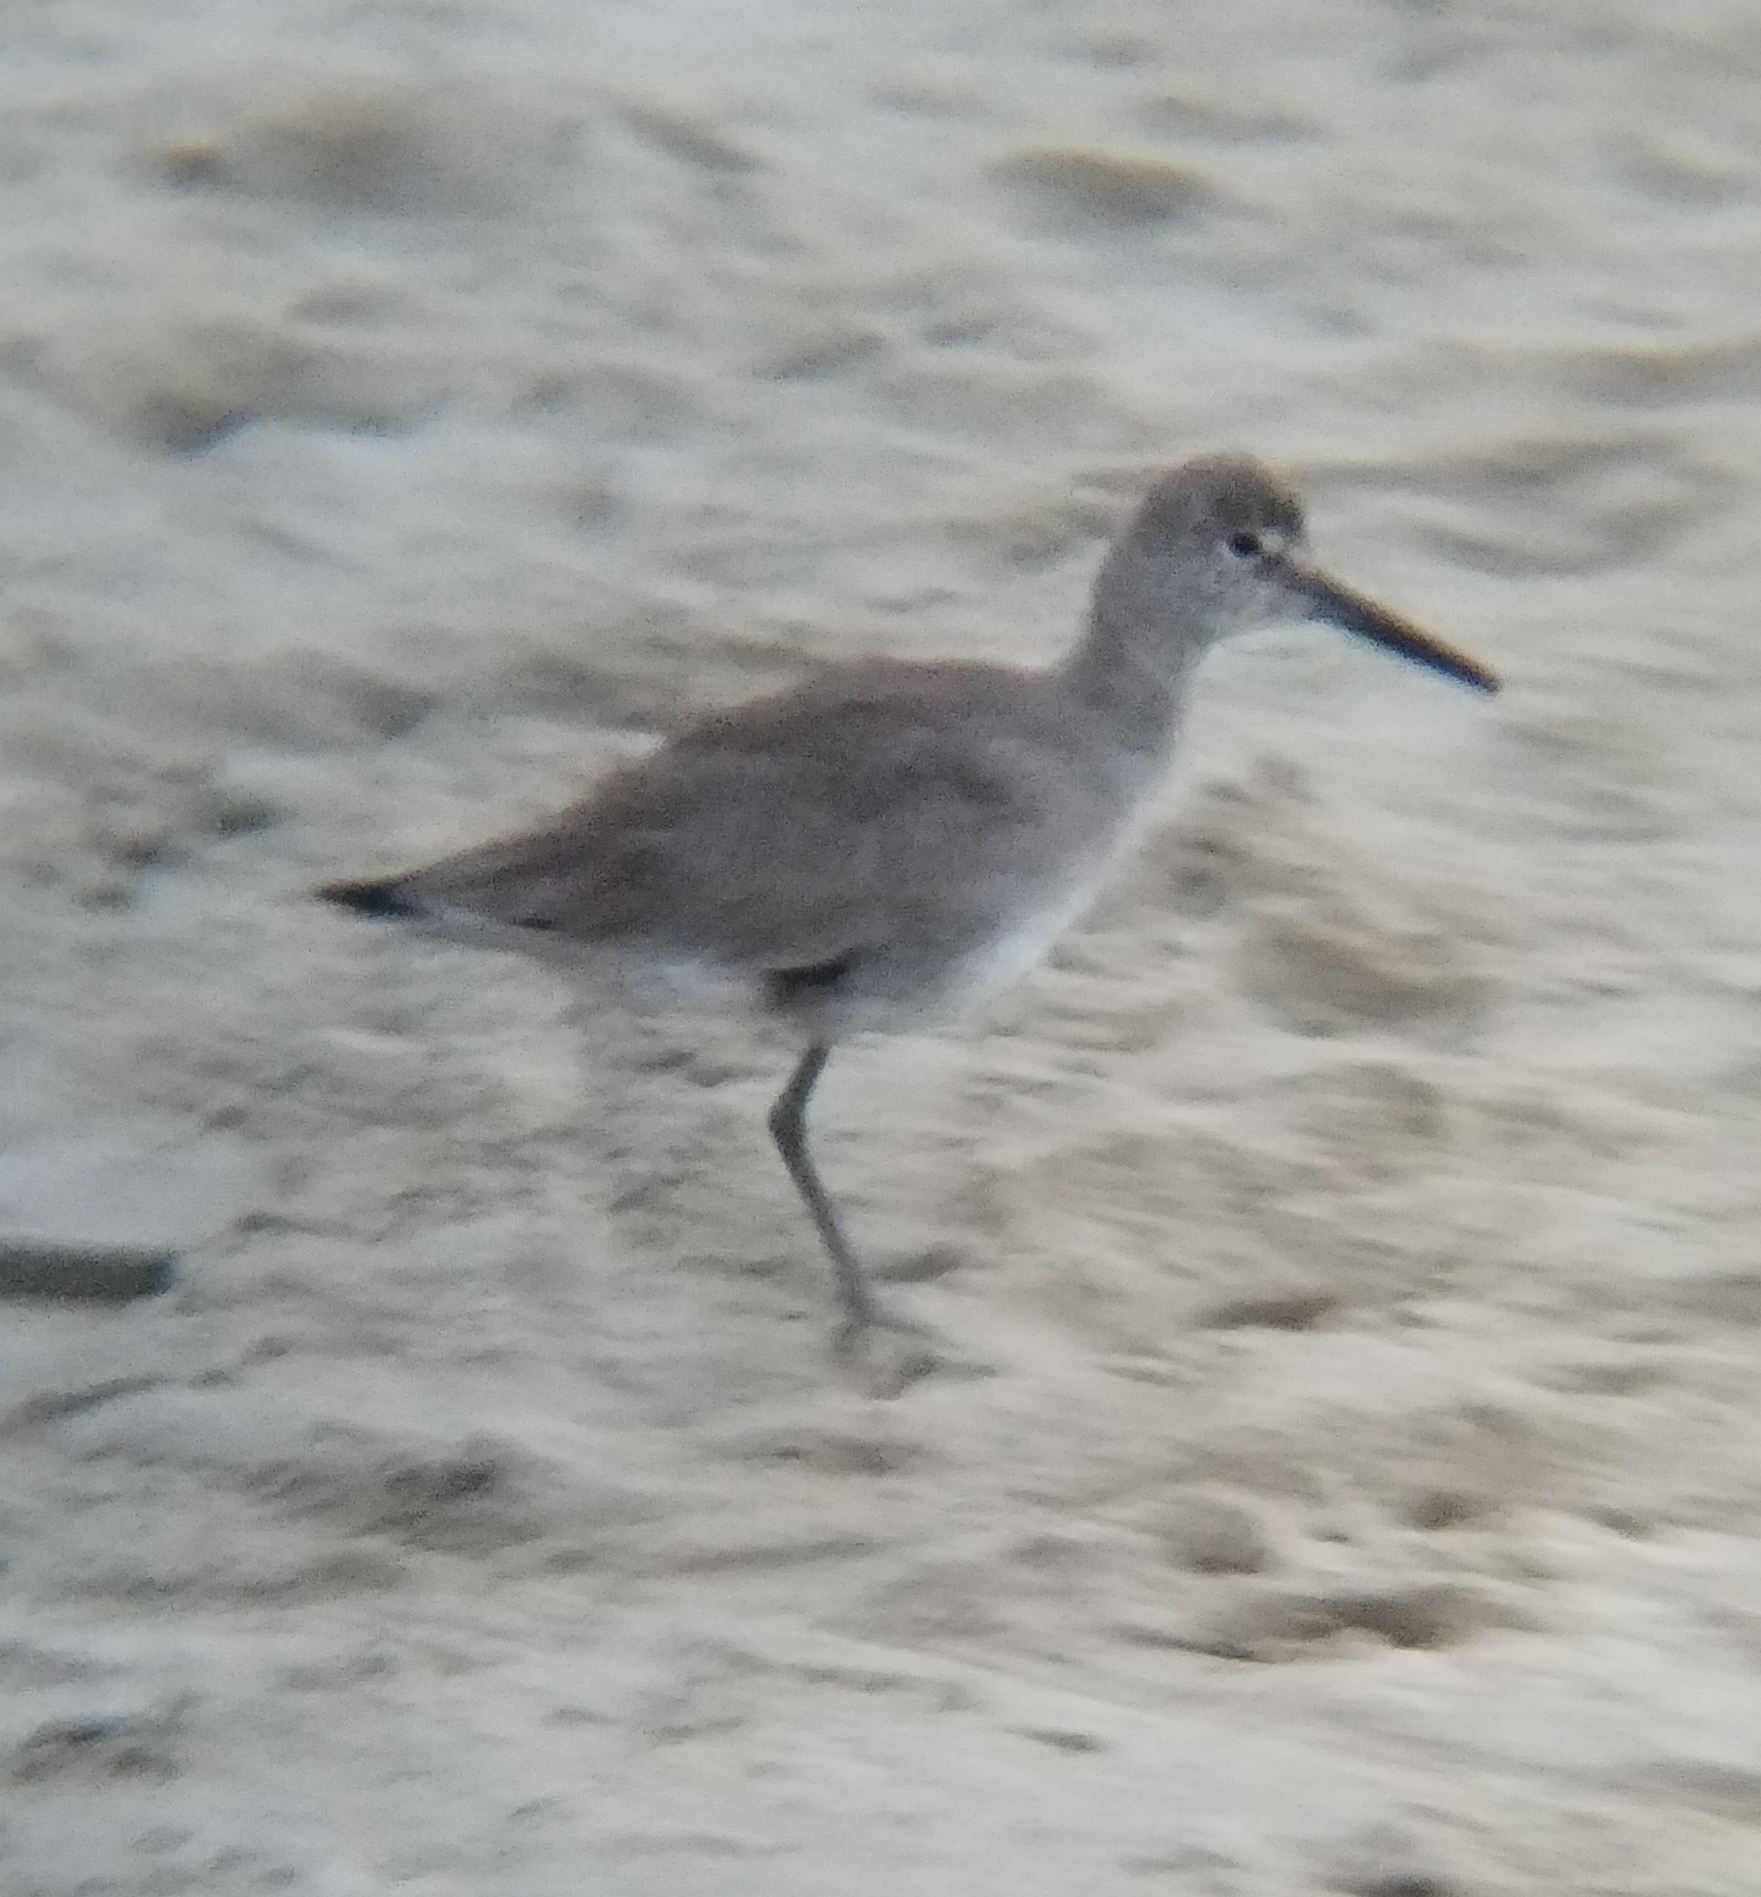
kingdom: Animalia
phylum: Chordata
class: Aves
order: Charadriiformes
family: Scolopacidae
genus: Tringa
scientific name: Tringa semipalmata
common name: Willet
